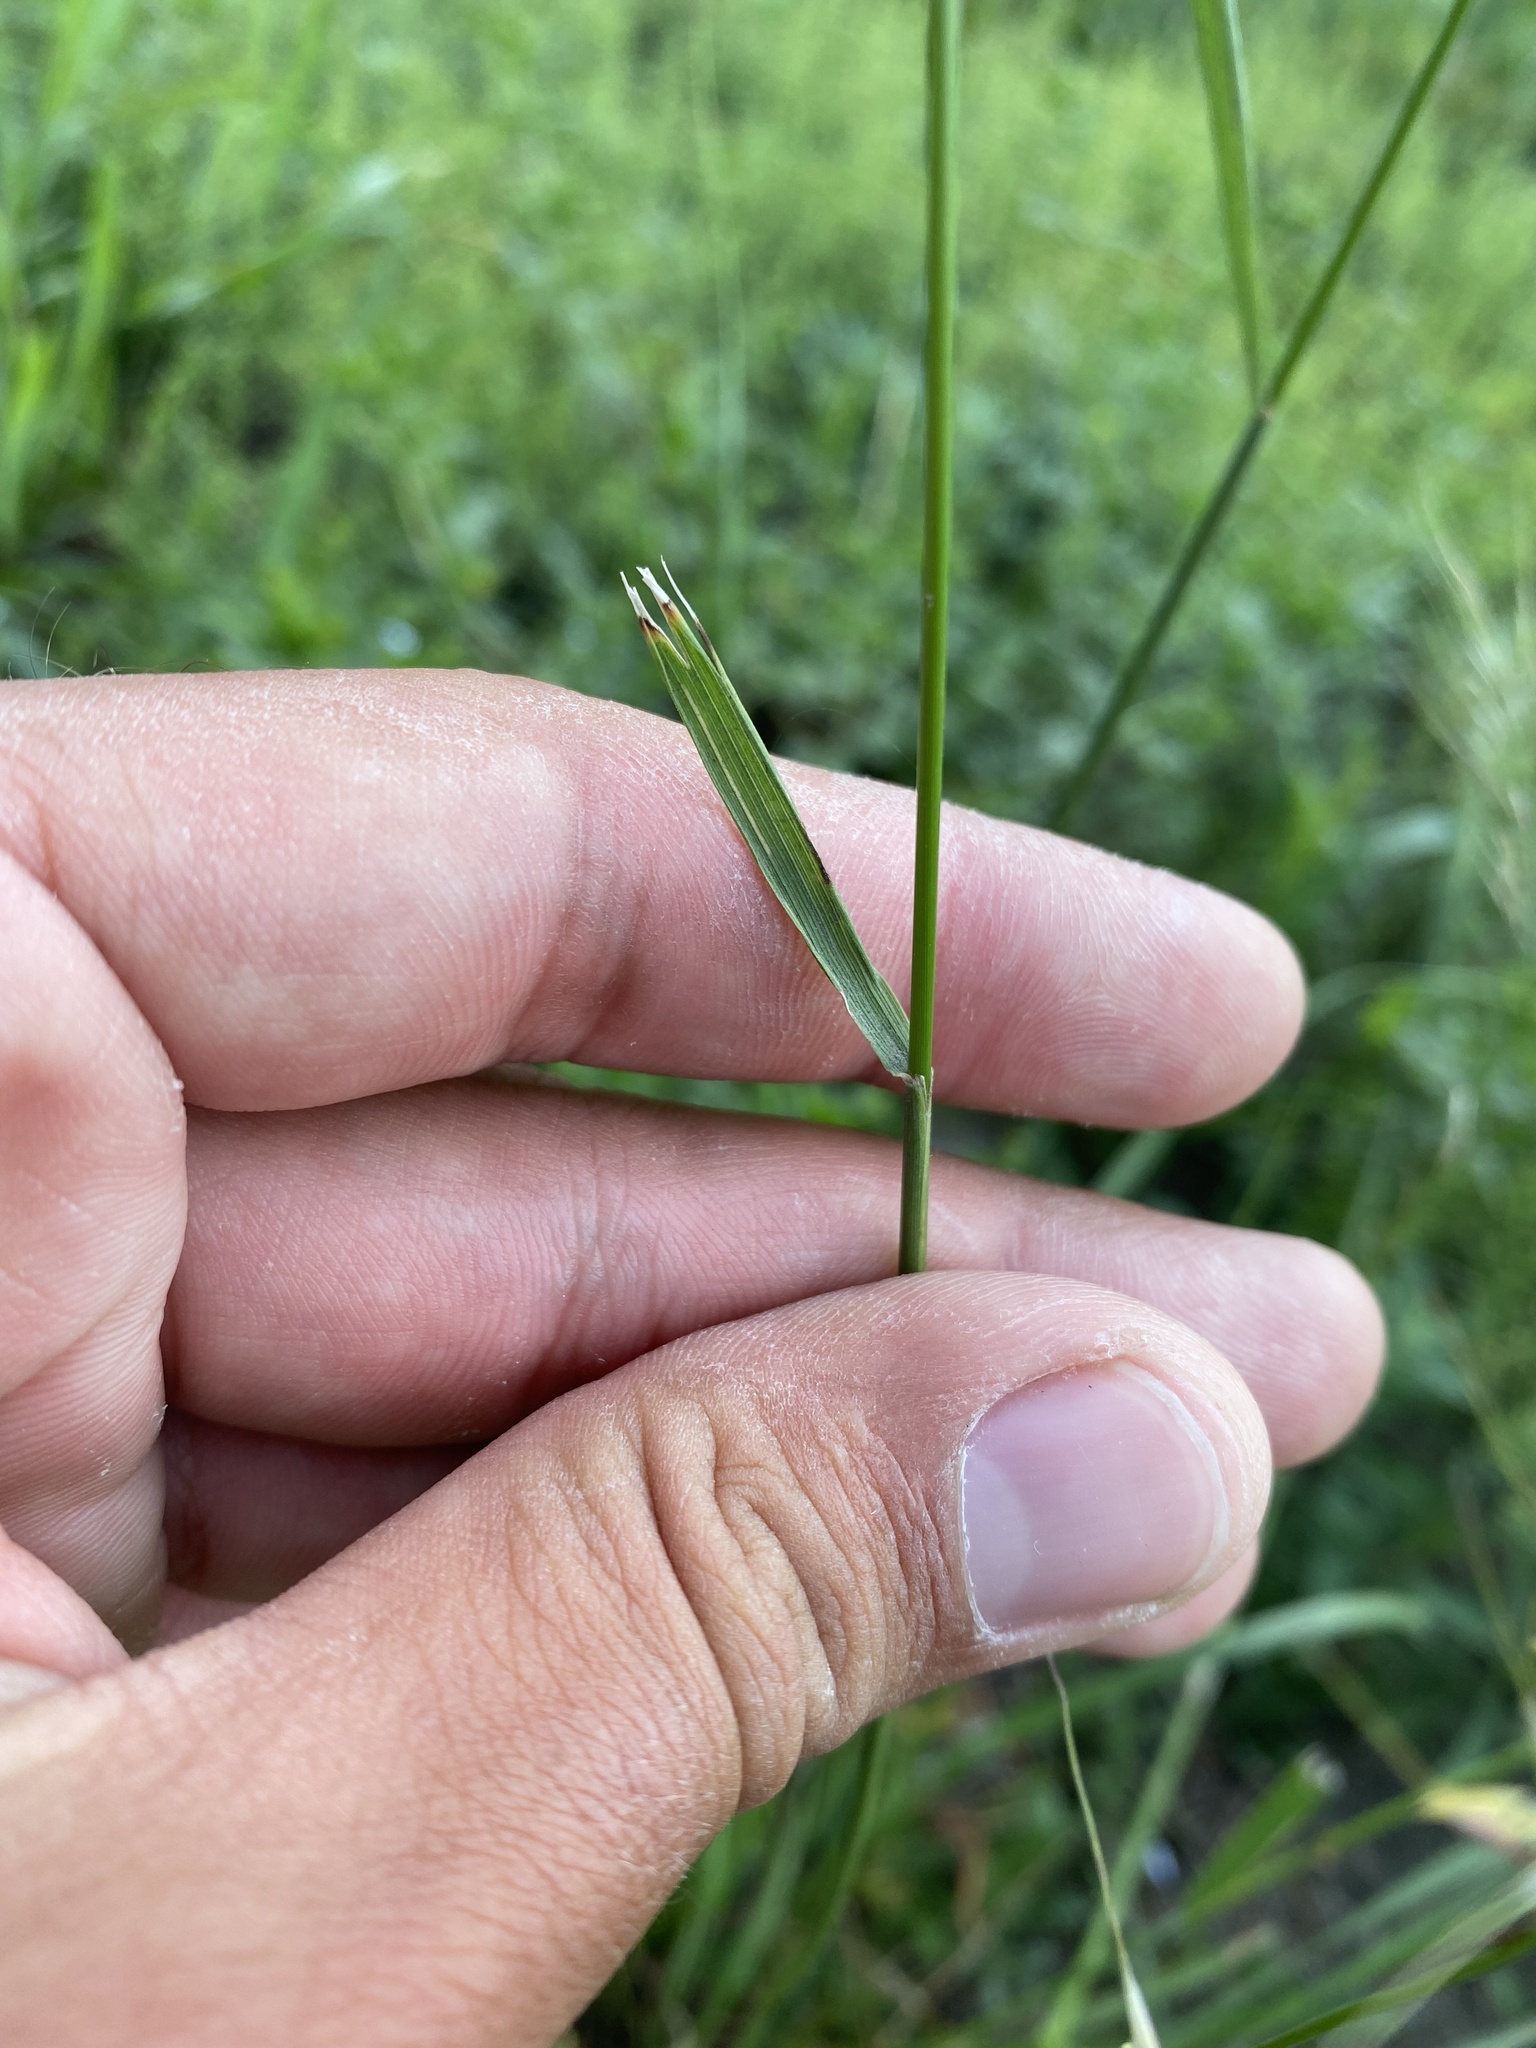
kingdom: Plantae
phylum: Tracheophyta
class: Liliopsida
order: Poales
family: Poaceae
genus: Achnatherum
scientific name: Achnatherum sibiricum
